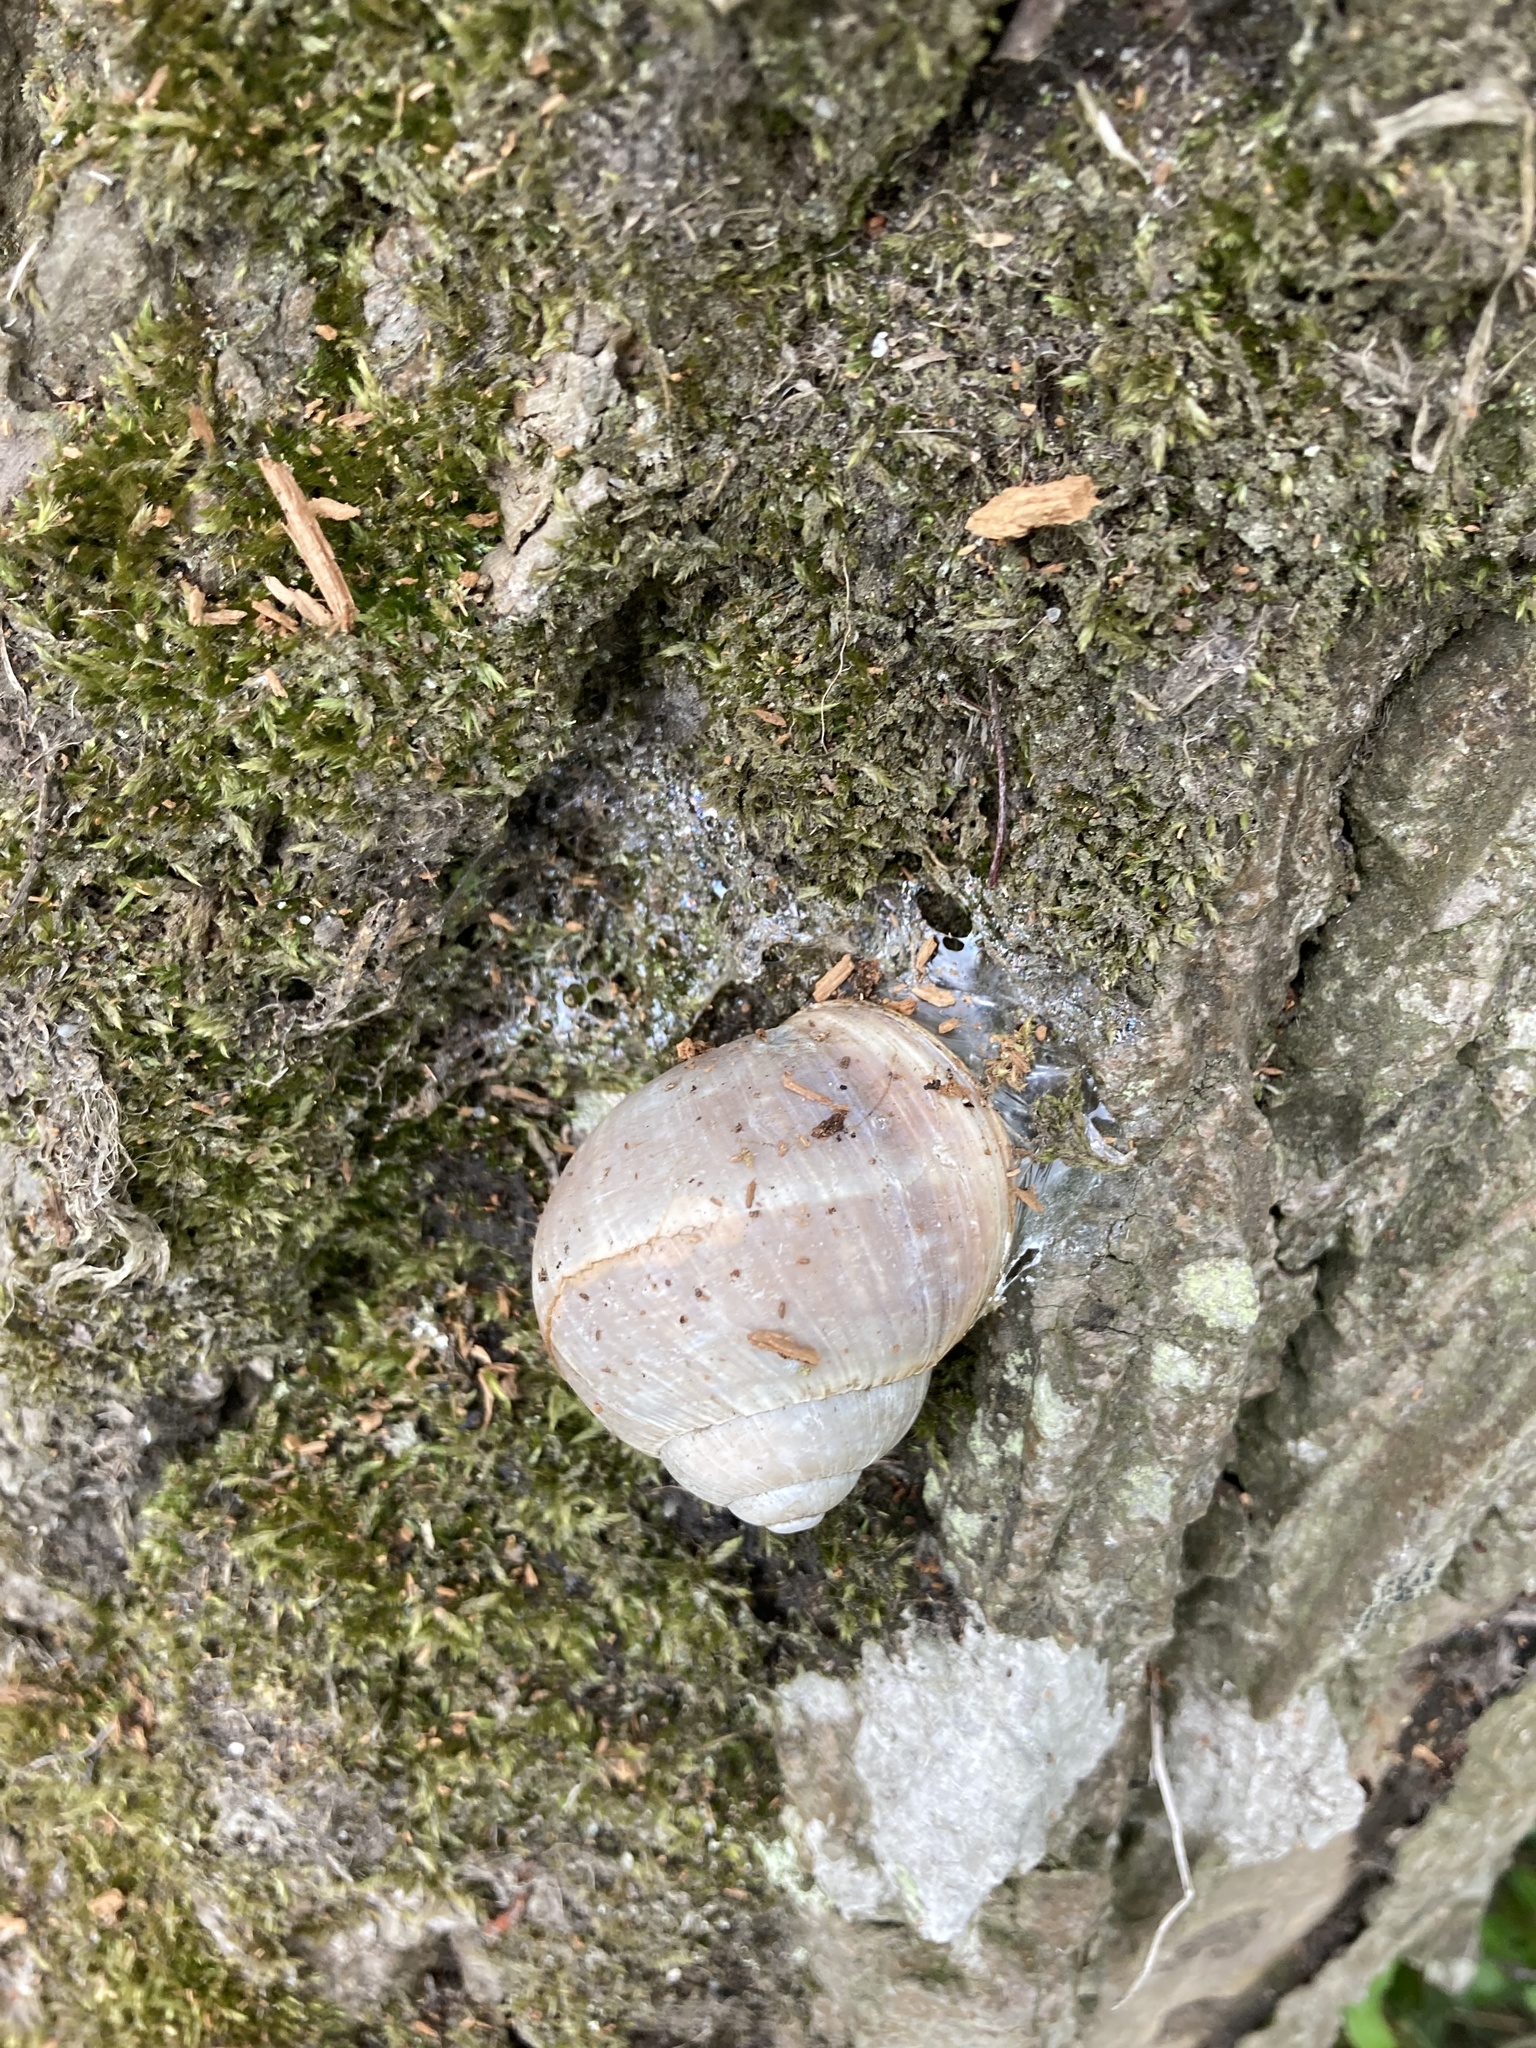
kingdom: Animalia
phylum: Mollusca
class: Gastropoda
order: Stylommatophora
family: Helicidae
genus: Helix
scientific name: Helix pomatia
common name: Roman snail
